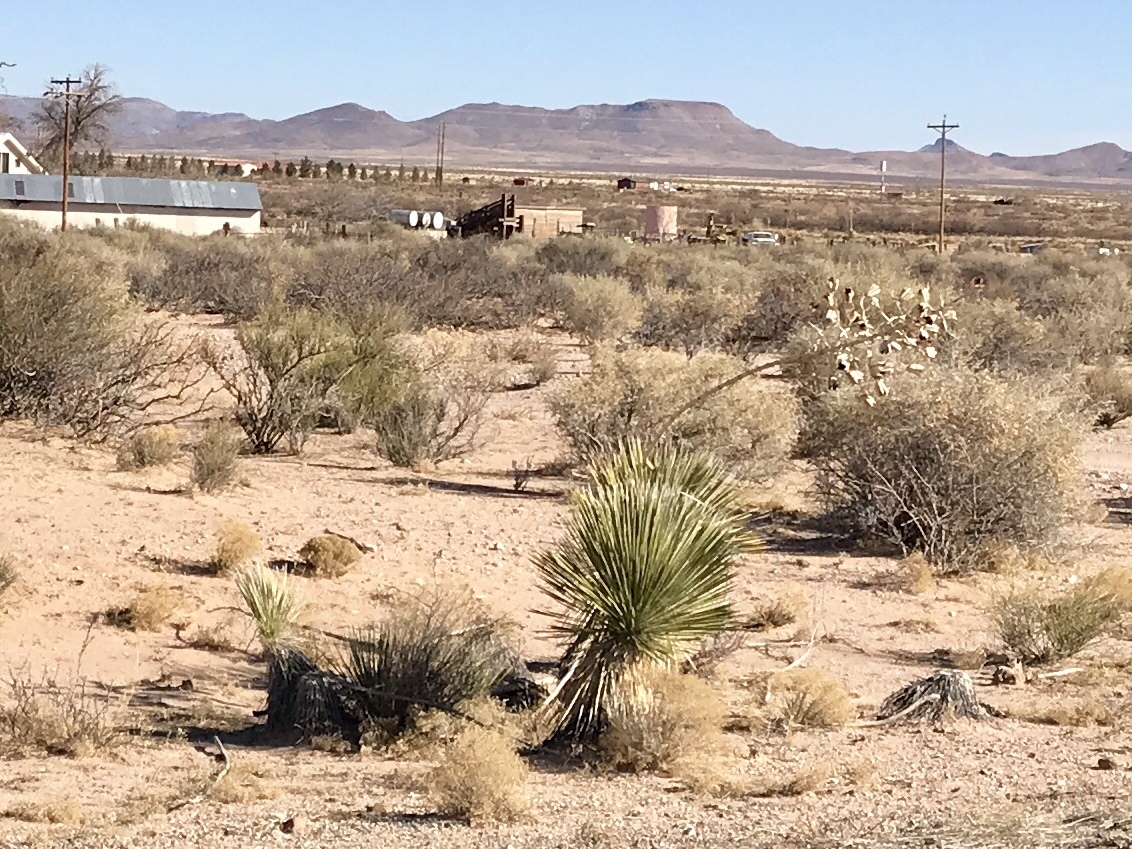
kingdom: Plantae
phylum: Tracheophyta
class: Liliopsida
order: Asparagales
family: Asparagaceae
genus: Yucca
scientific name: Yucca elata
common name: Palmella
